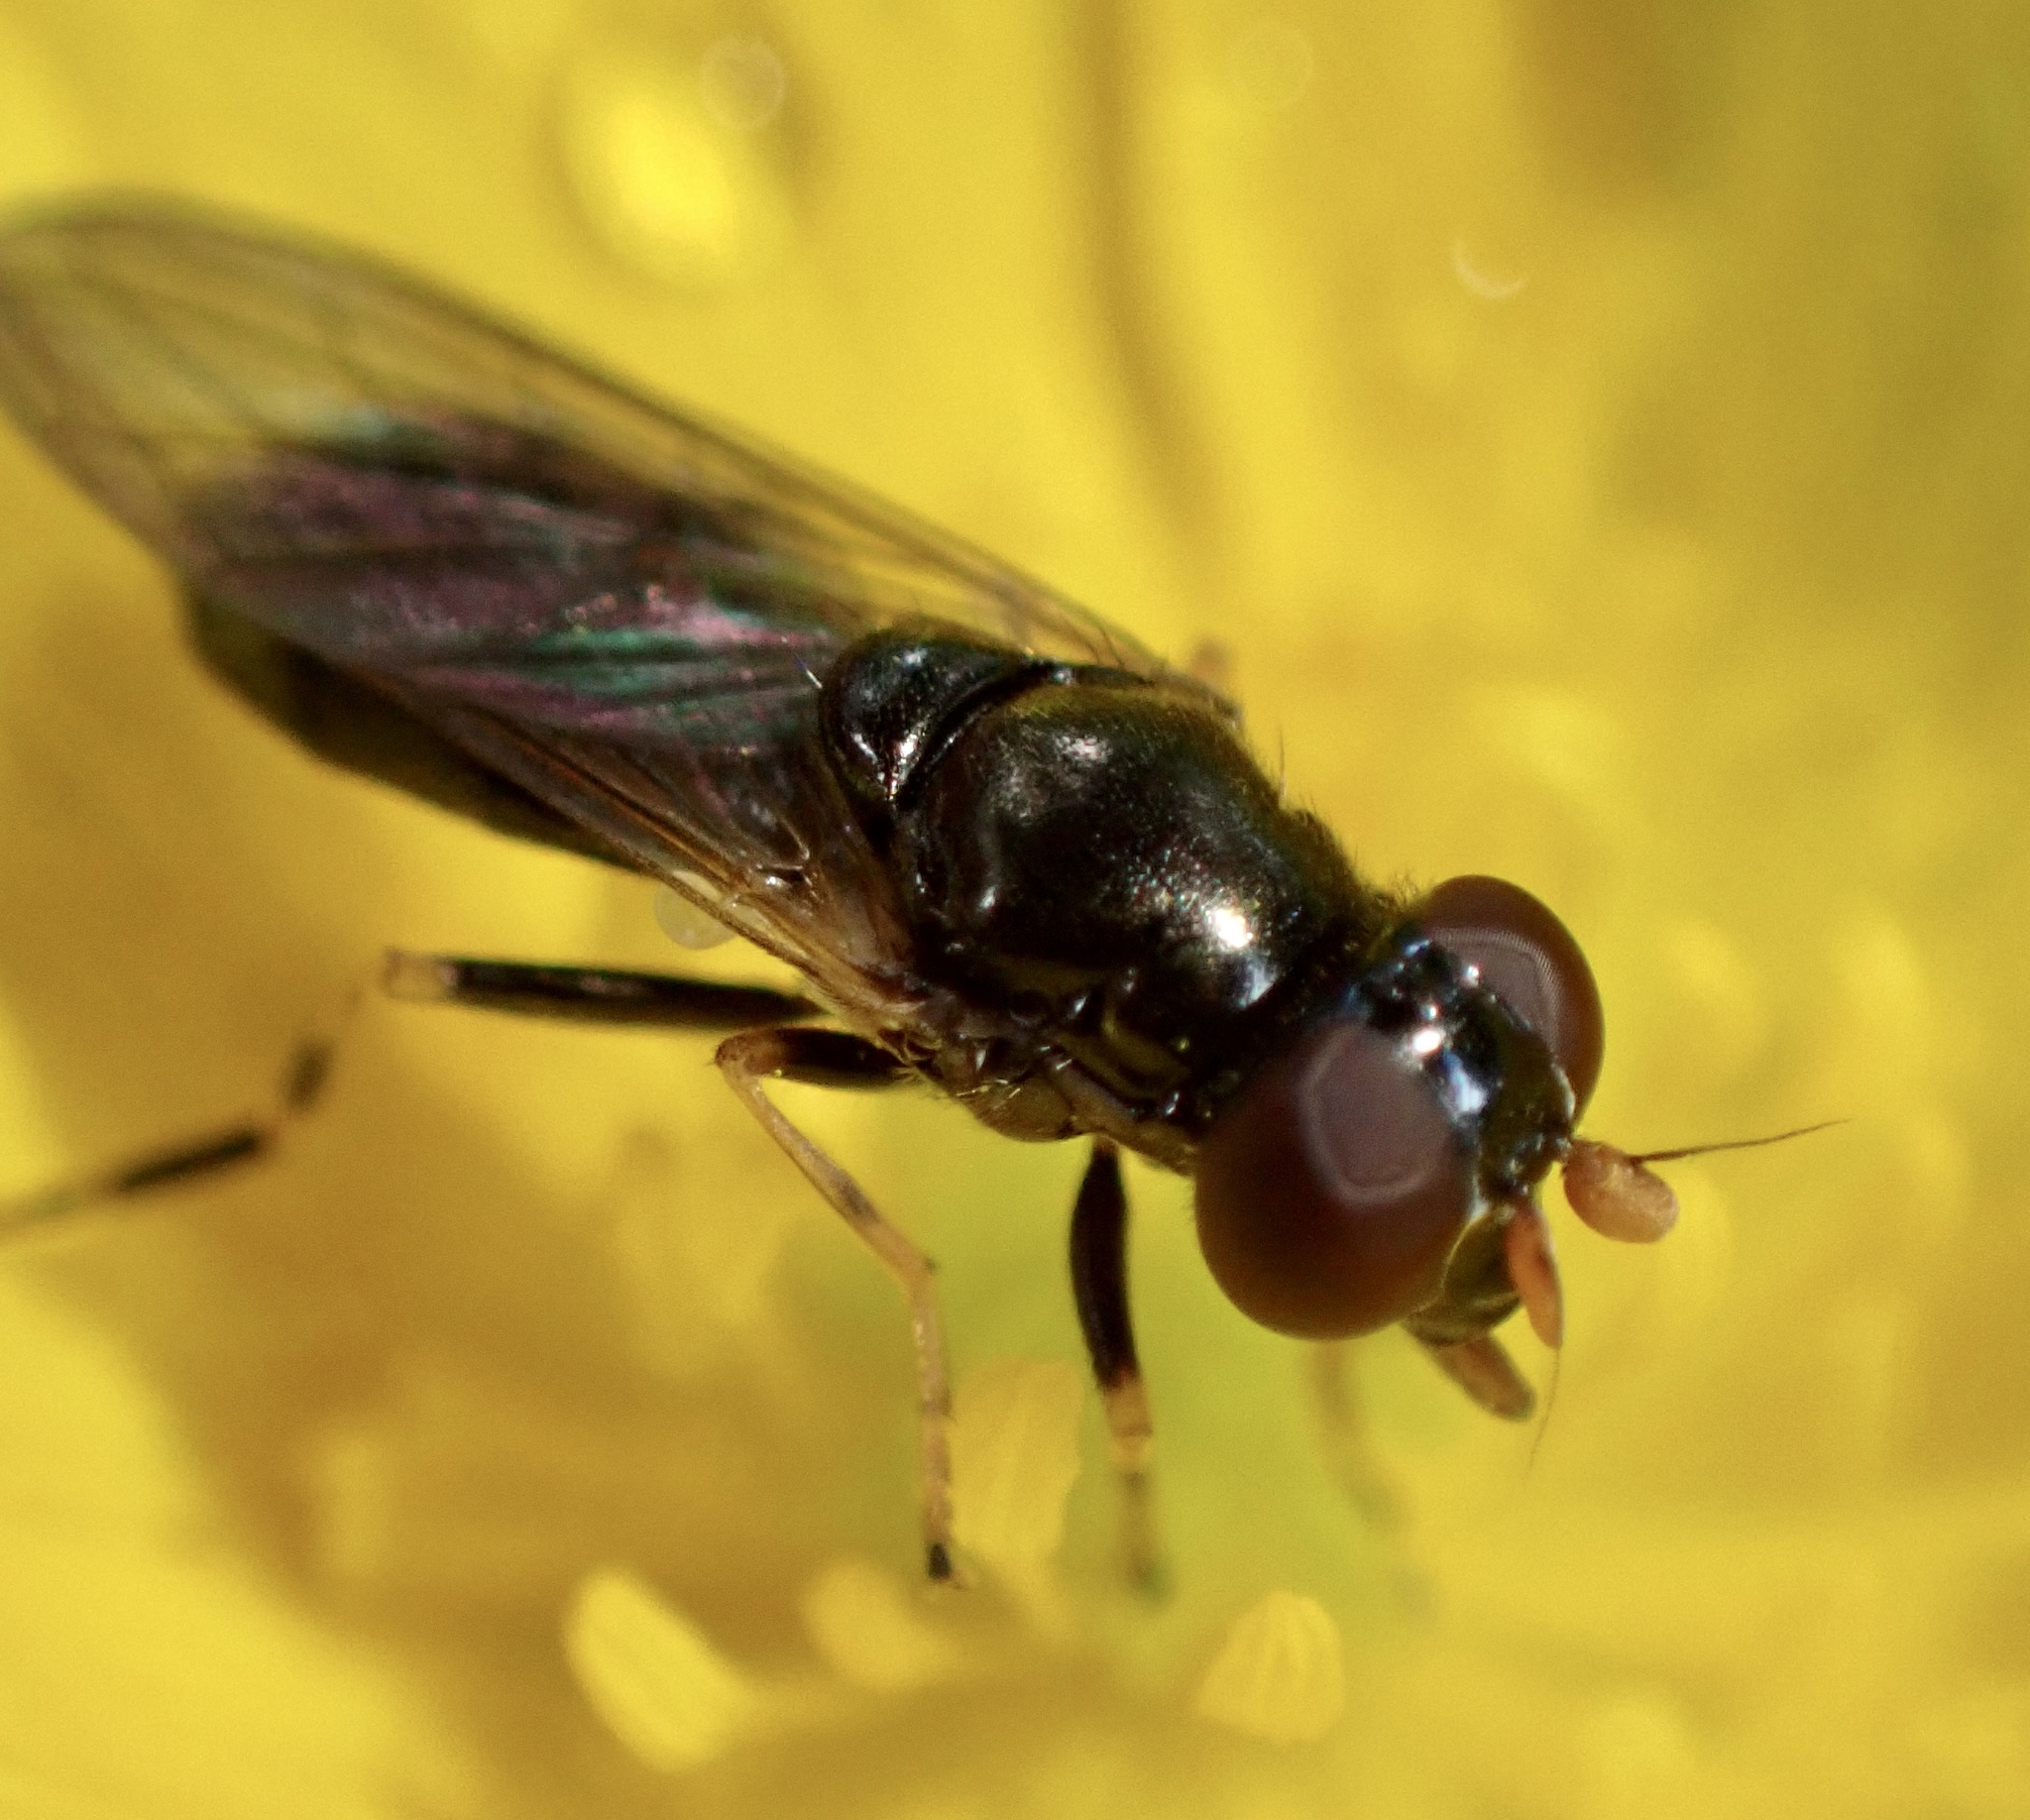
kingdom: Animalia
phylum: Arthropoda
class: Insecta
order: Diptera
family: Syrphidae
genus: Cheilosia
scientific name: Cheilosia pagana
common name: Hover fly
